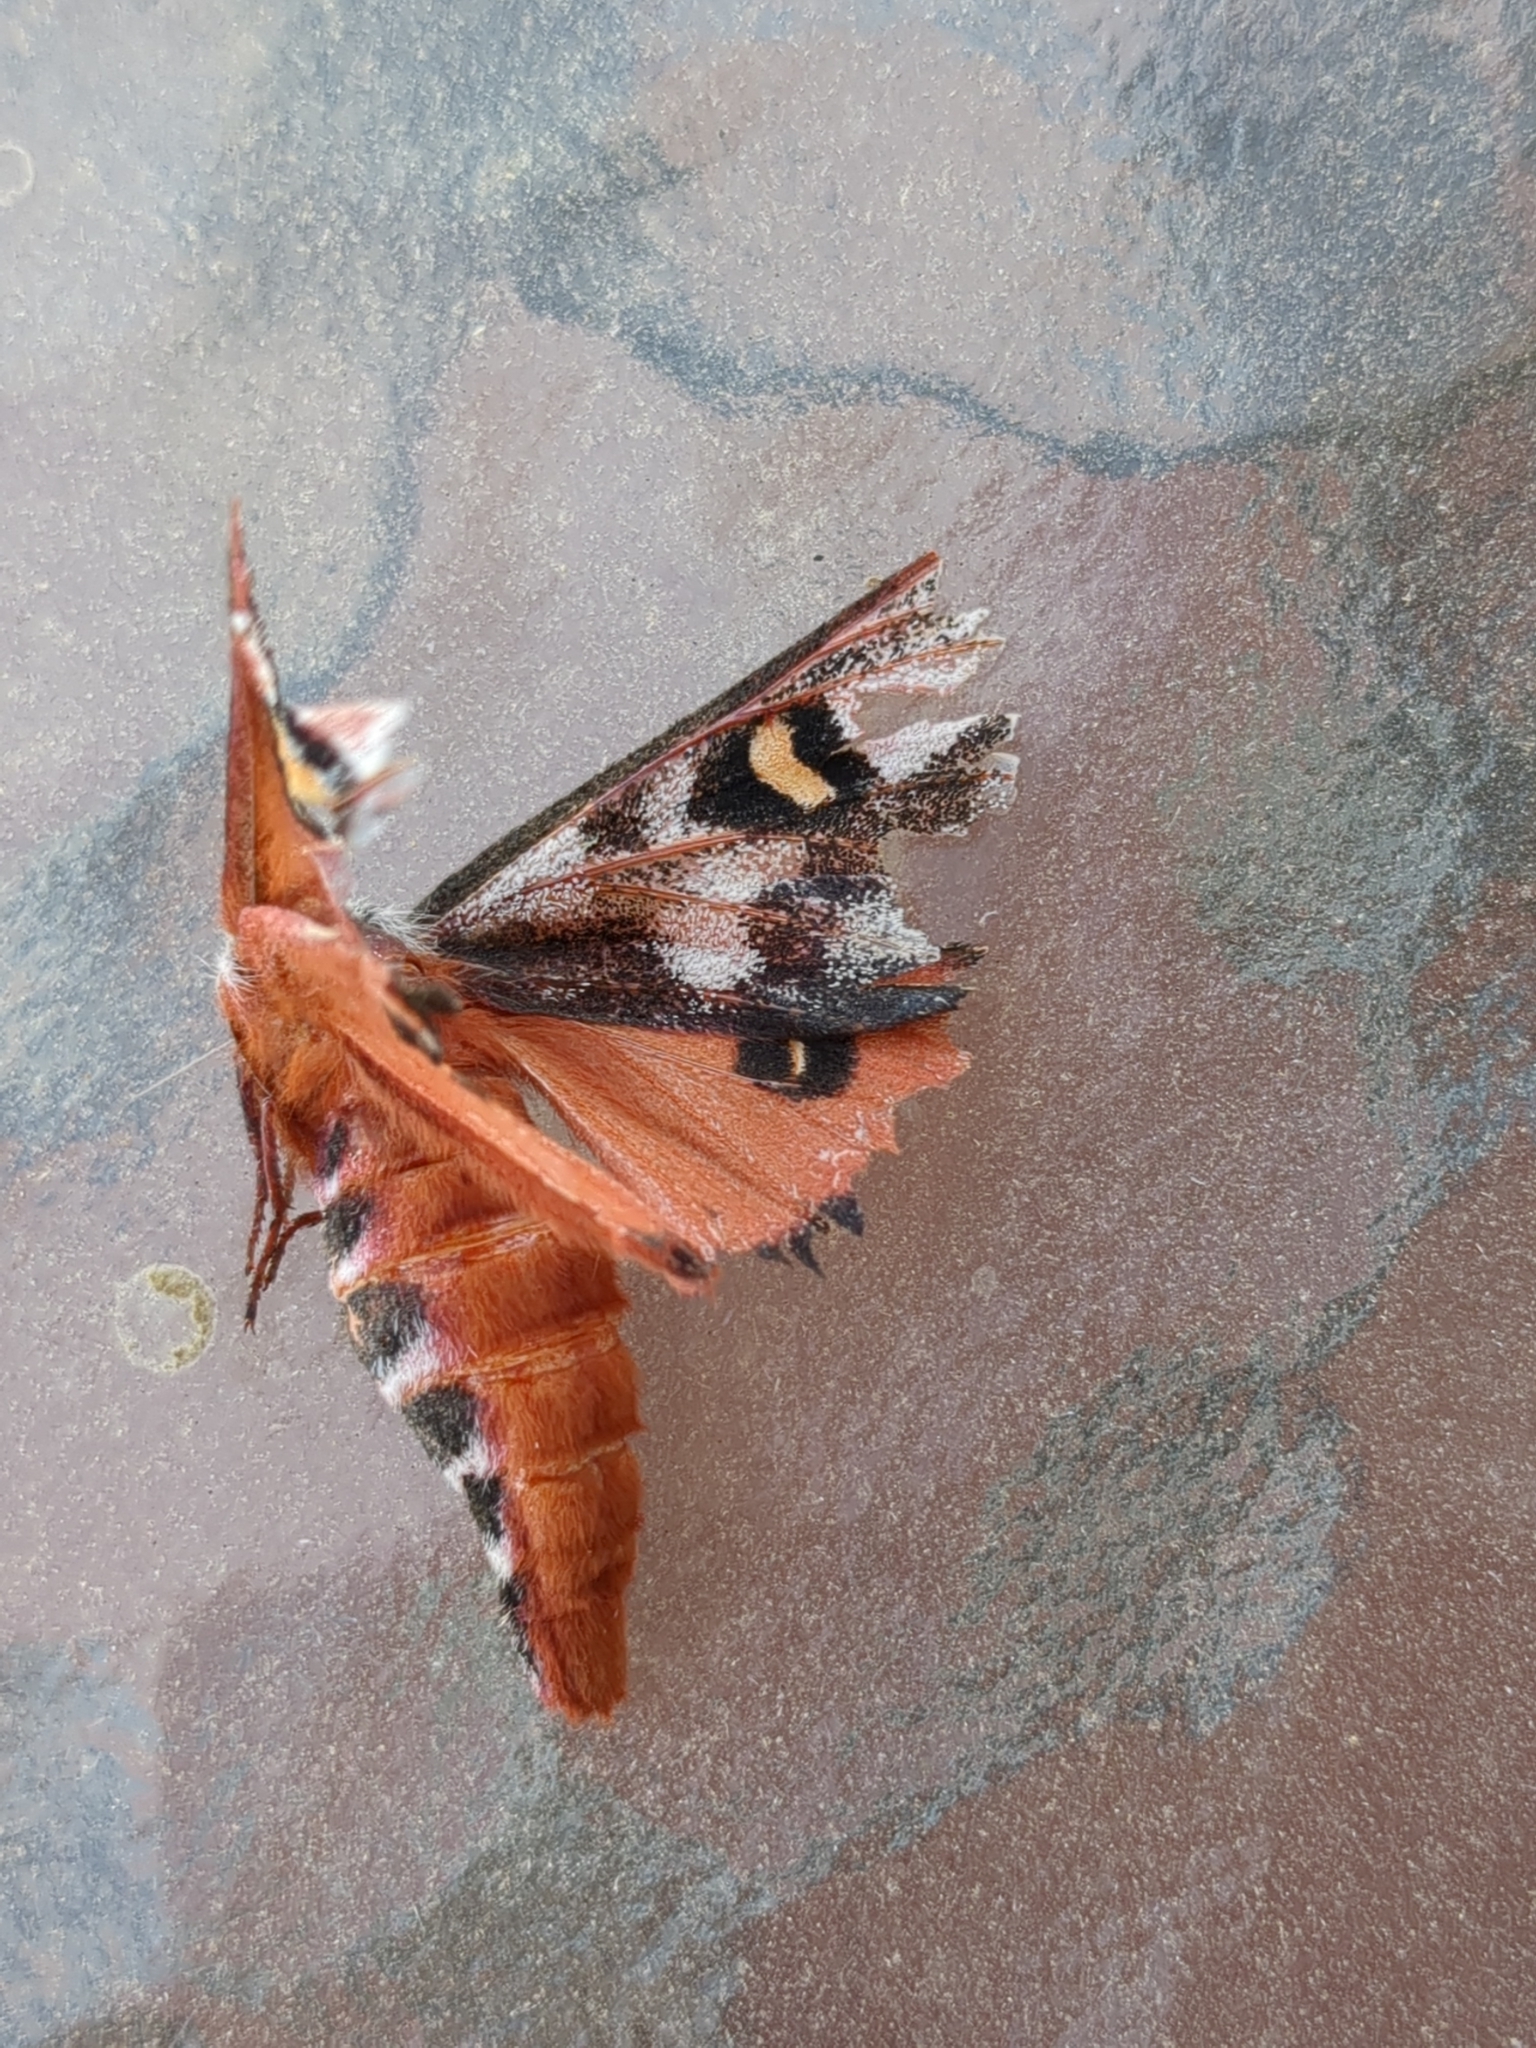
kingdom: Animalia
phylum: Arthropoda
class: Insecta
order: Lepidoptera
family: Saturniidae
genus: Hemileuca
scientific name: Hemileuca electra
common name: Electra buckmoth
